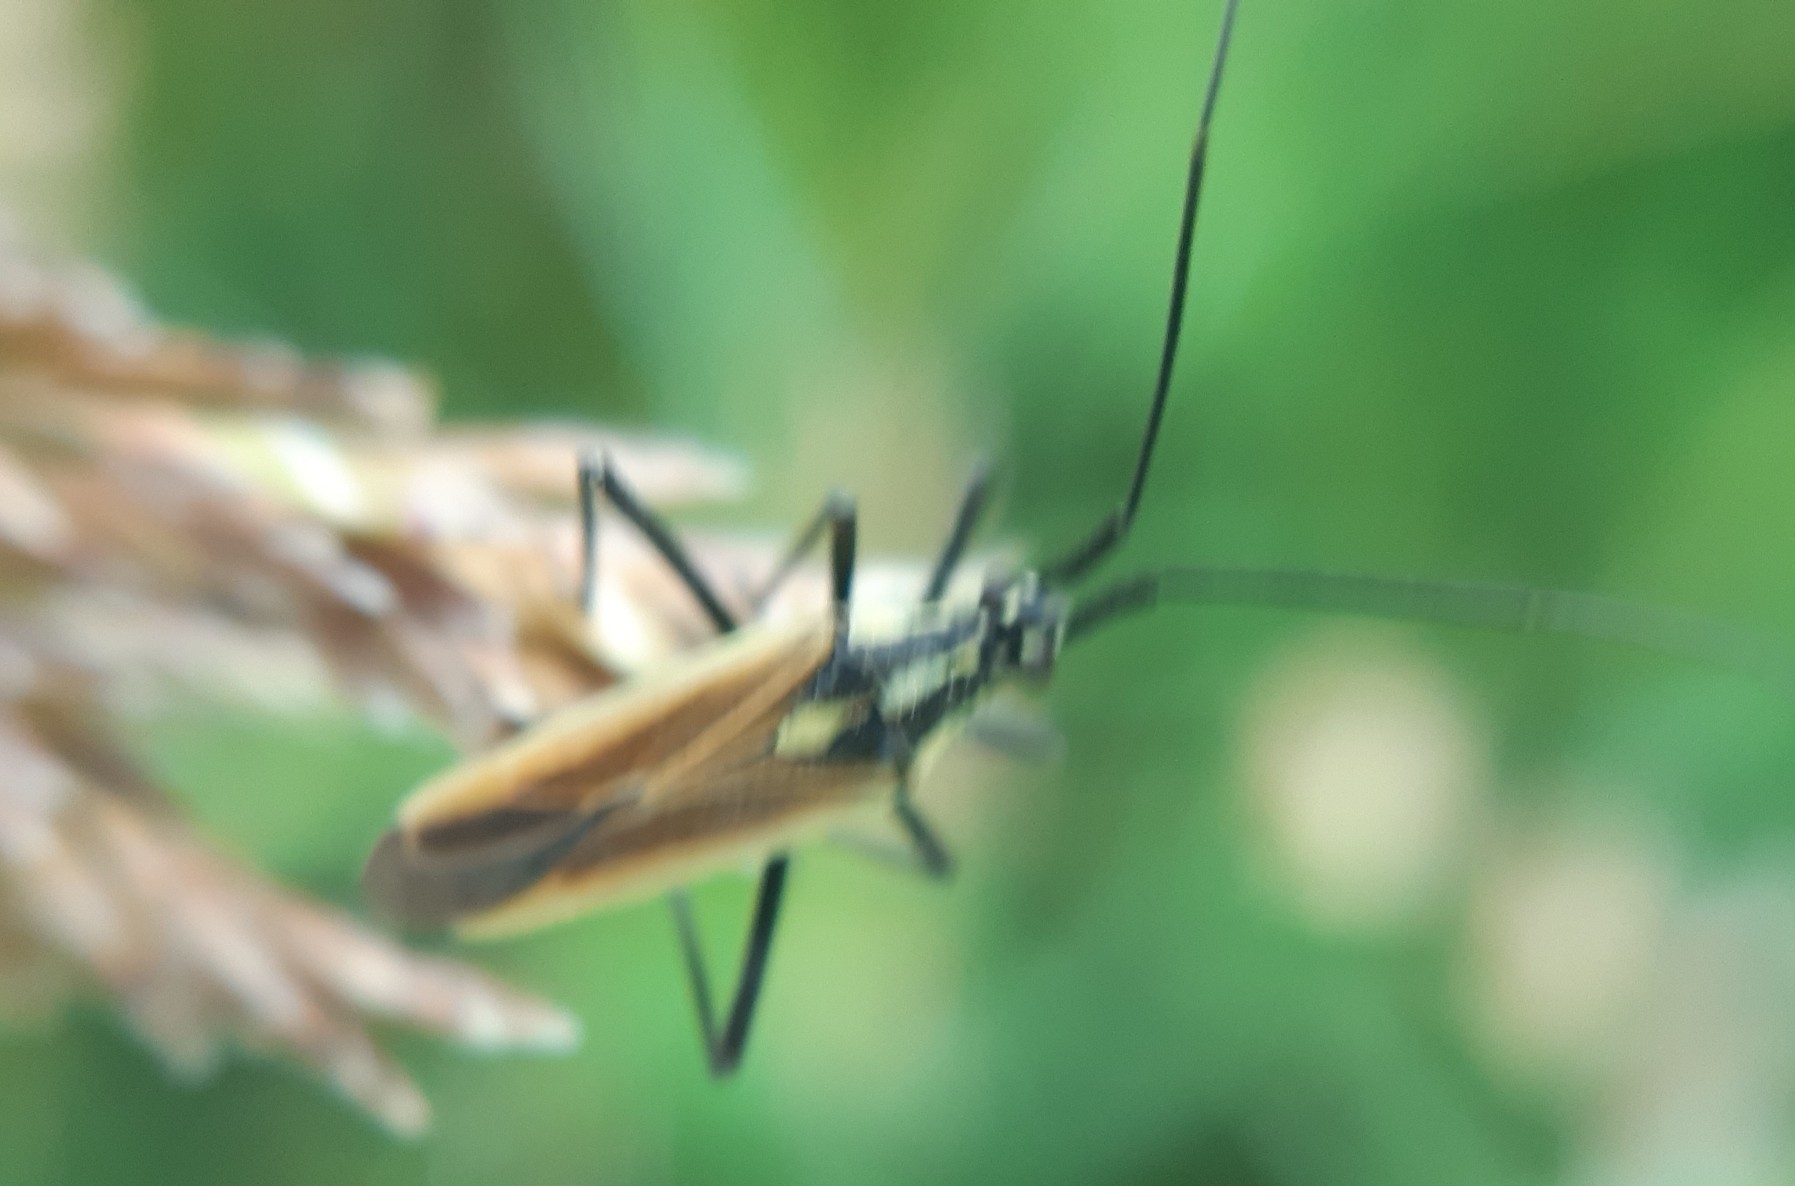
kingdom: Animalia
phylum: Arthropoda
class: Insecta
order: Hemiptera
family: Miridae
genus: Leptopterna
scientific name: Leptopterna dolabrata
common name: Meadow plant bug
